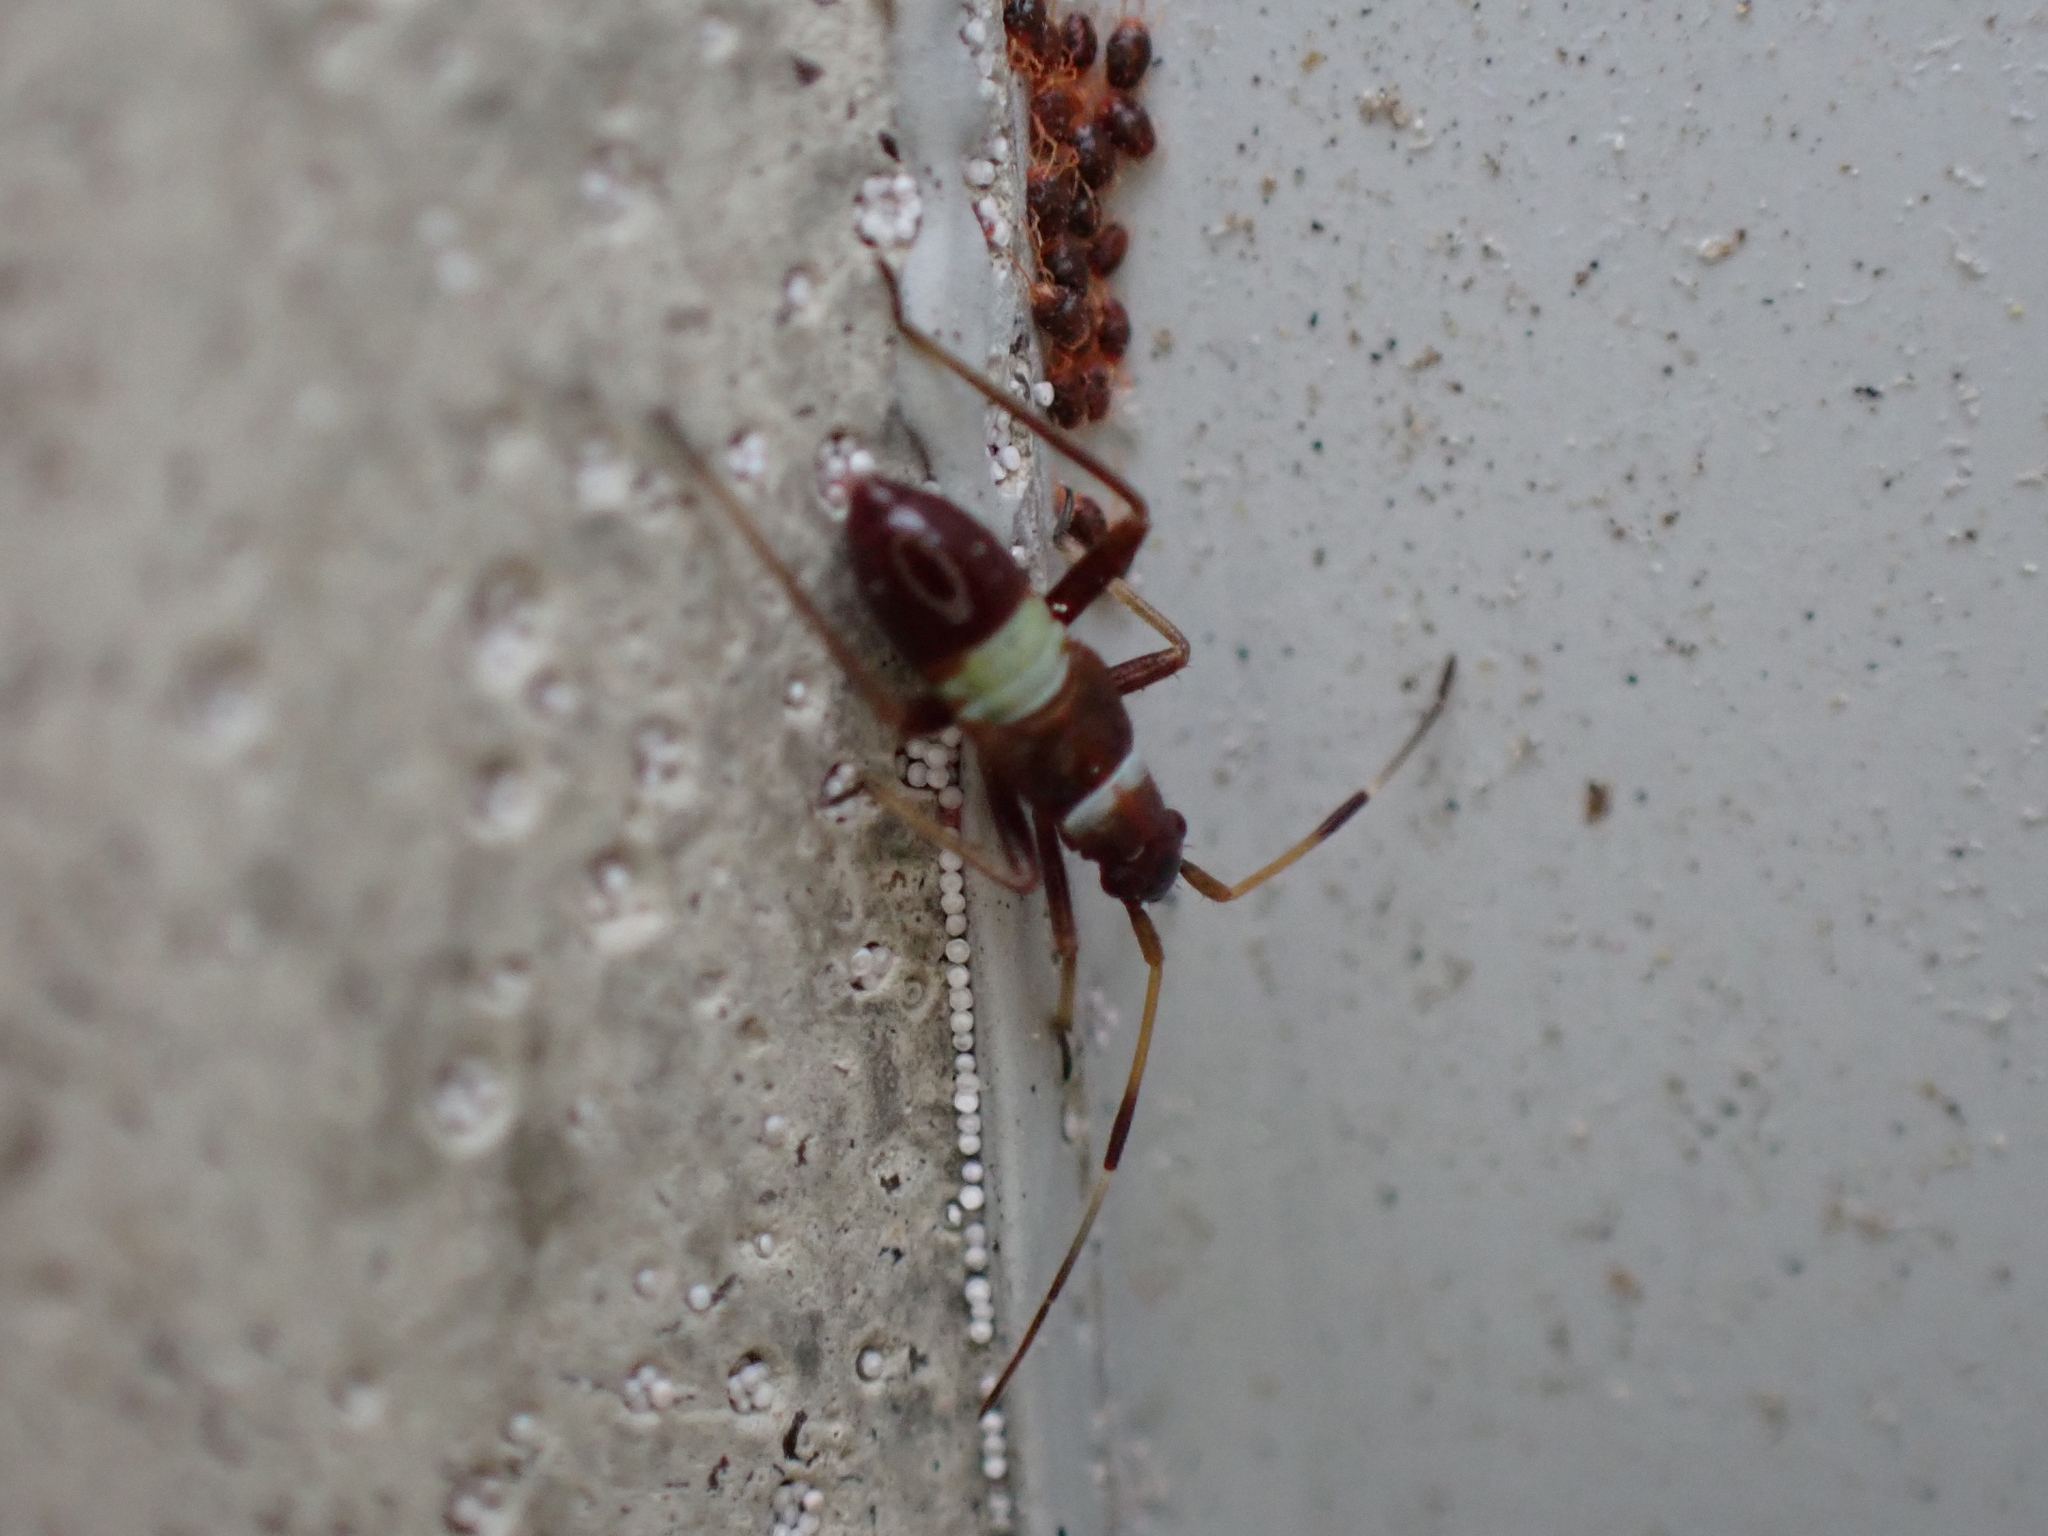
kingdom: Animalia
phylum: Arthropoda
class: Insecta
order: Hemiptera
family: Miridae
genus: Closterotomus
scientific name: Closterotomus biclavatus
